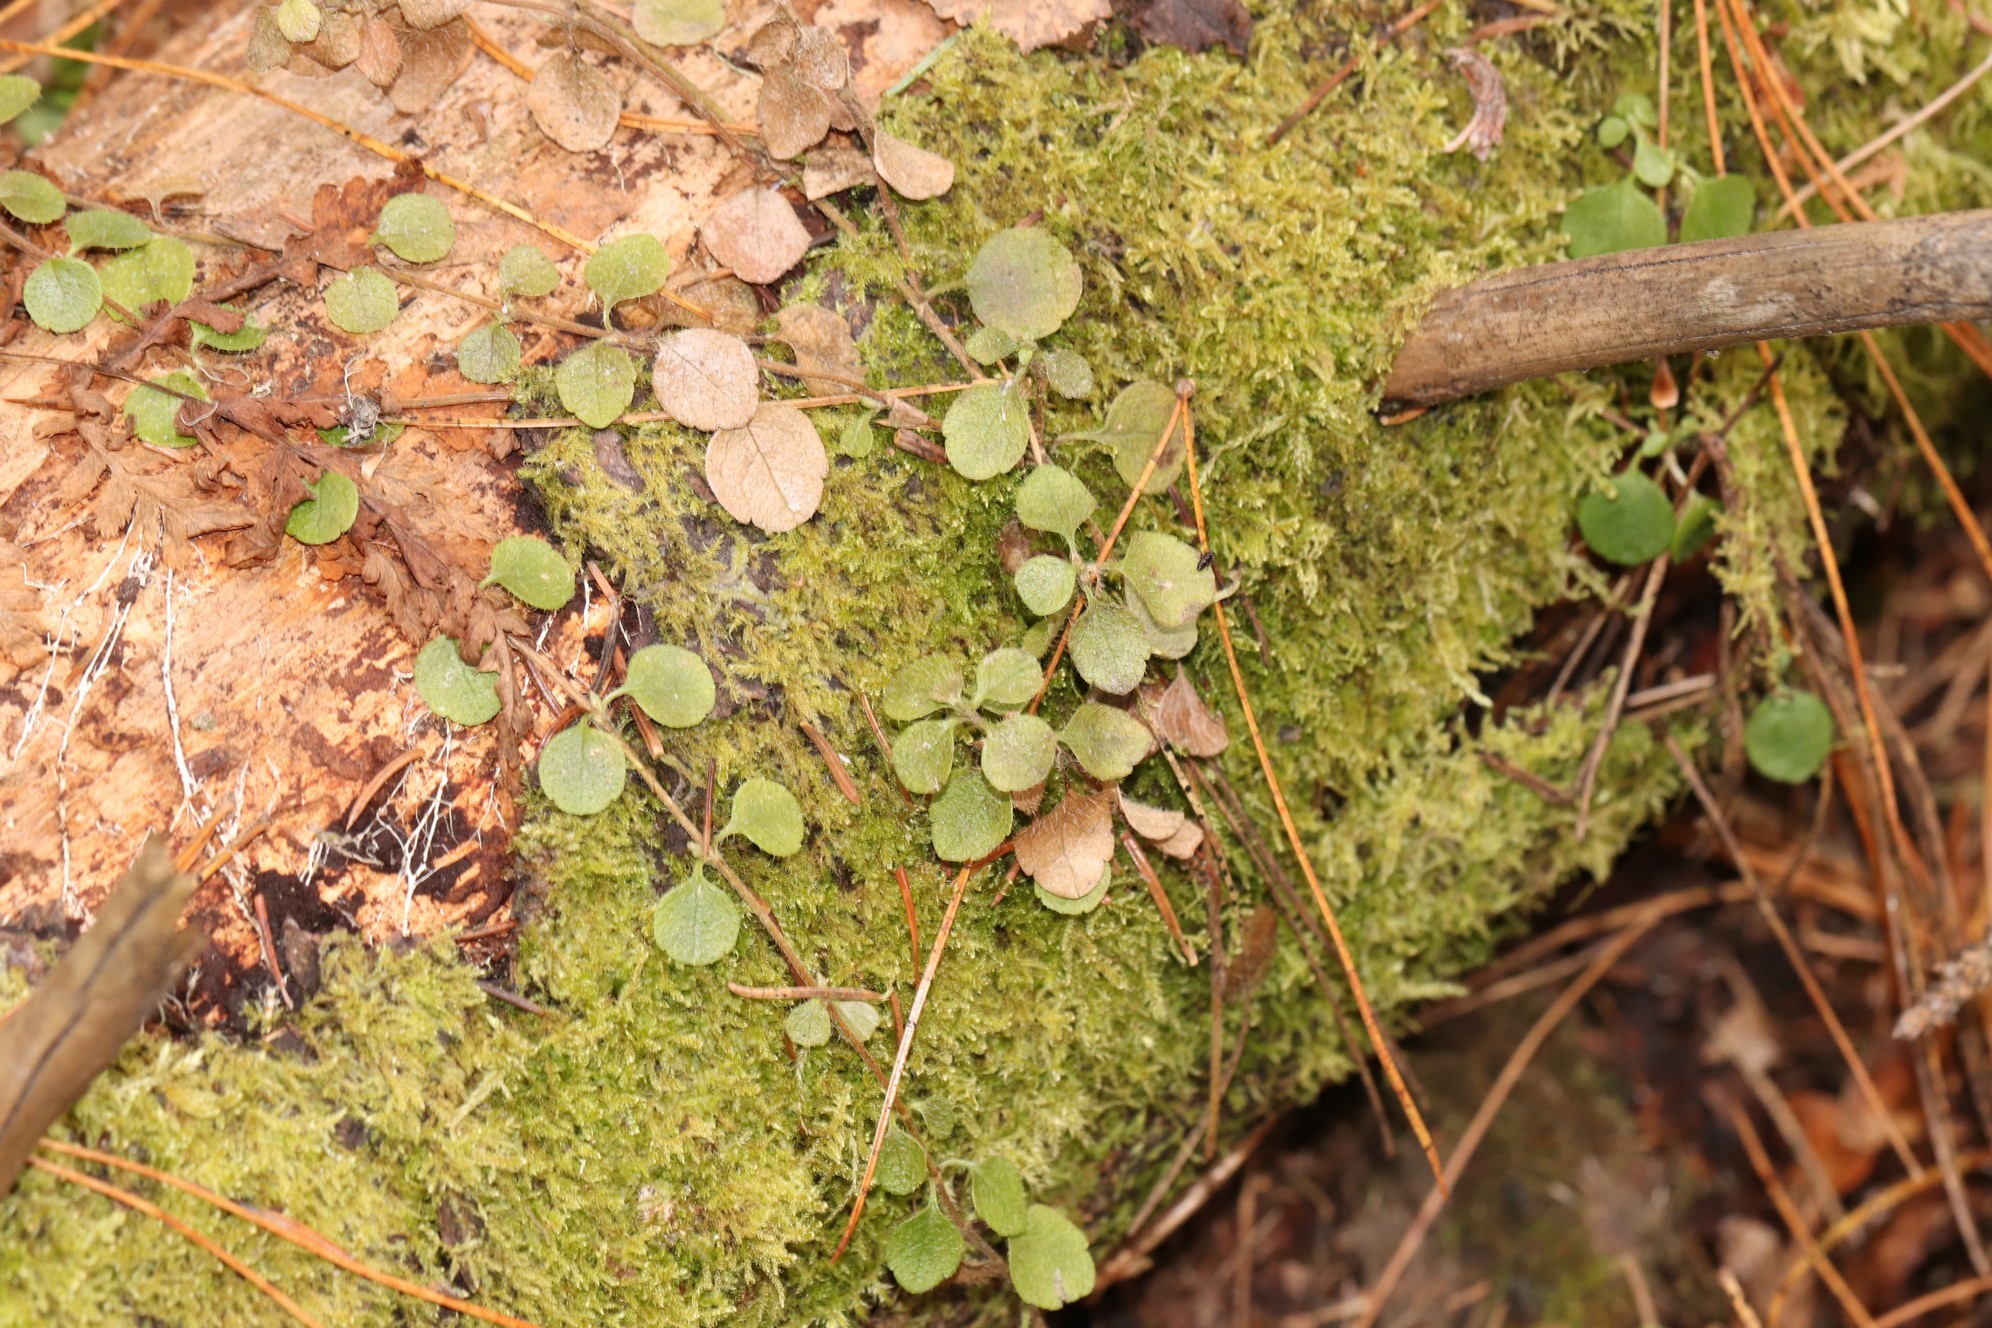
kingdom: Plantae
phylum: Tracheophyta
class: Magnoliopsida
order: Dipsacales
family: Caprifoliaceae
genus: Linnaea
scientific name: Linnaea borealis
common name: Twinflower
